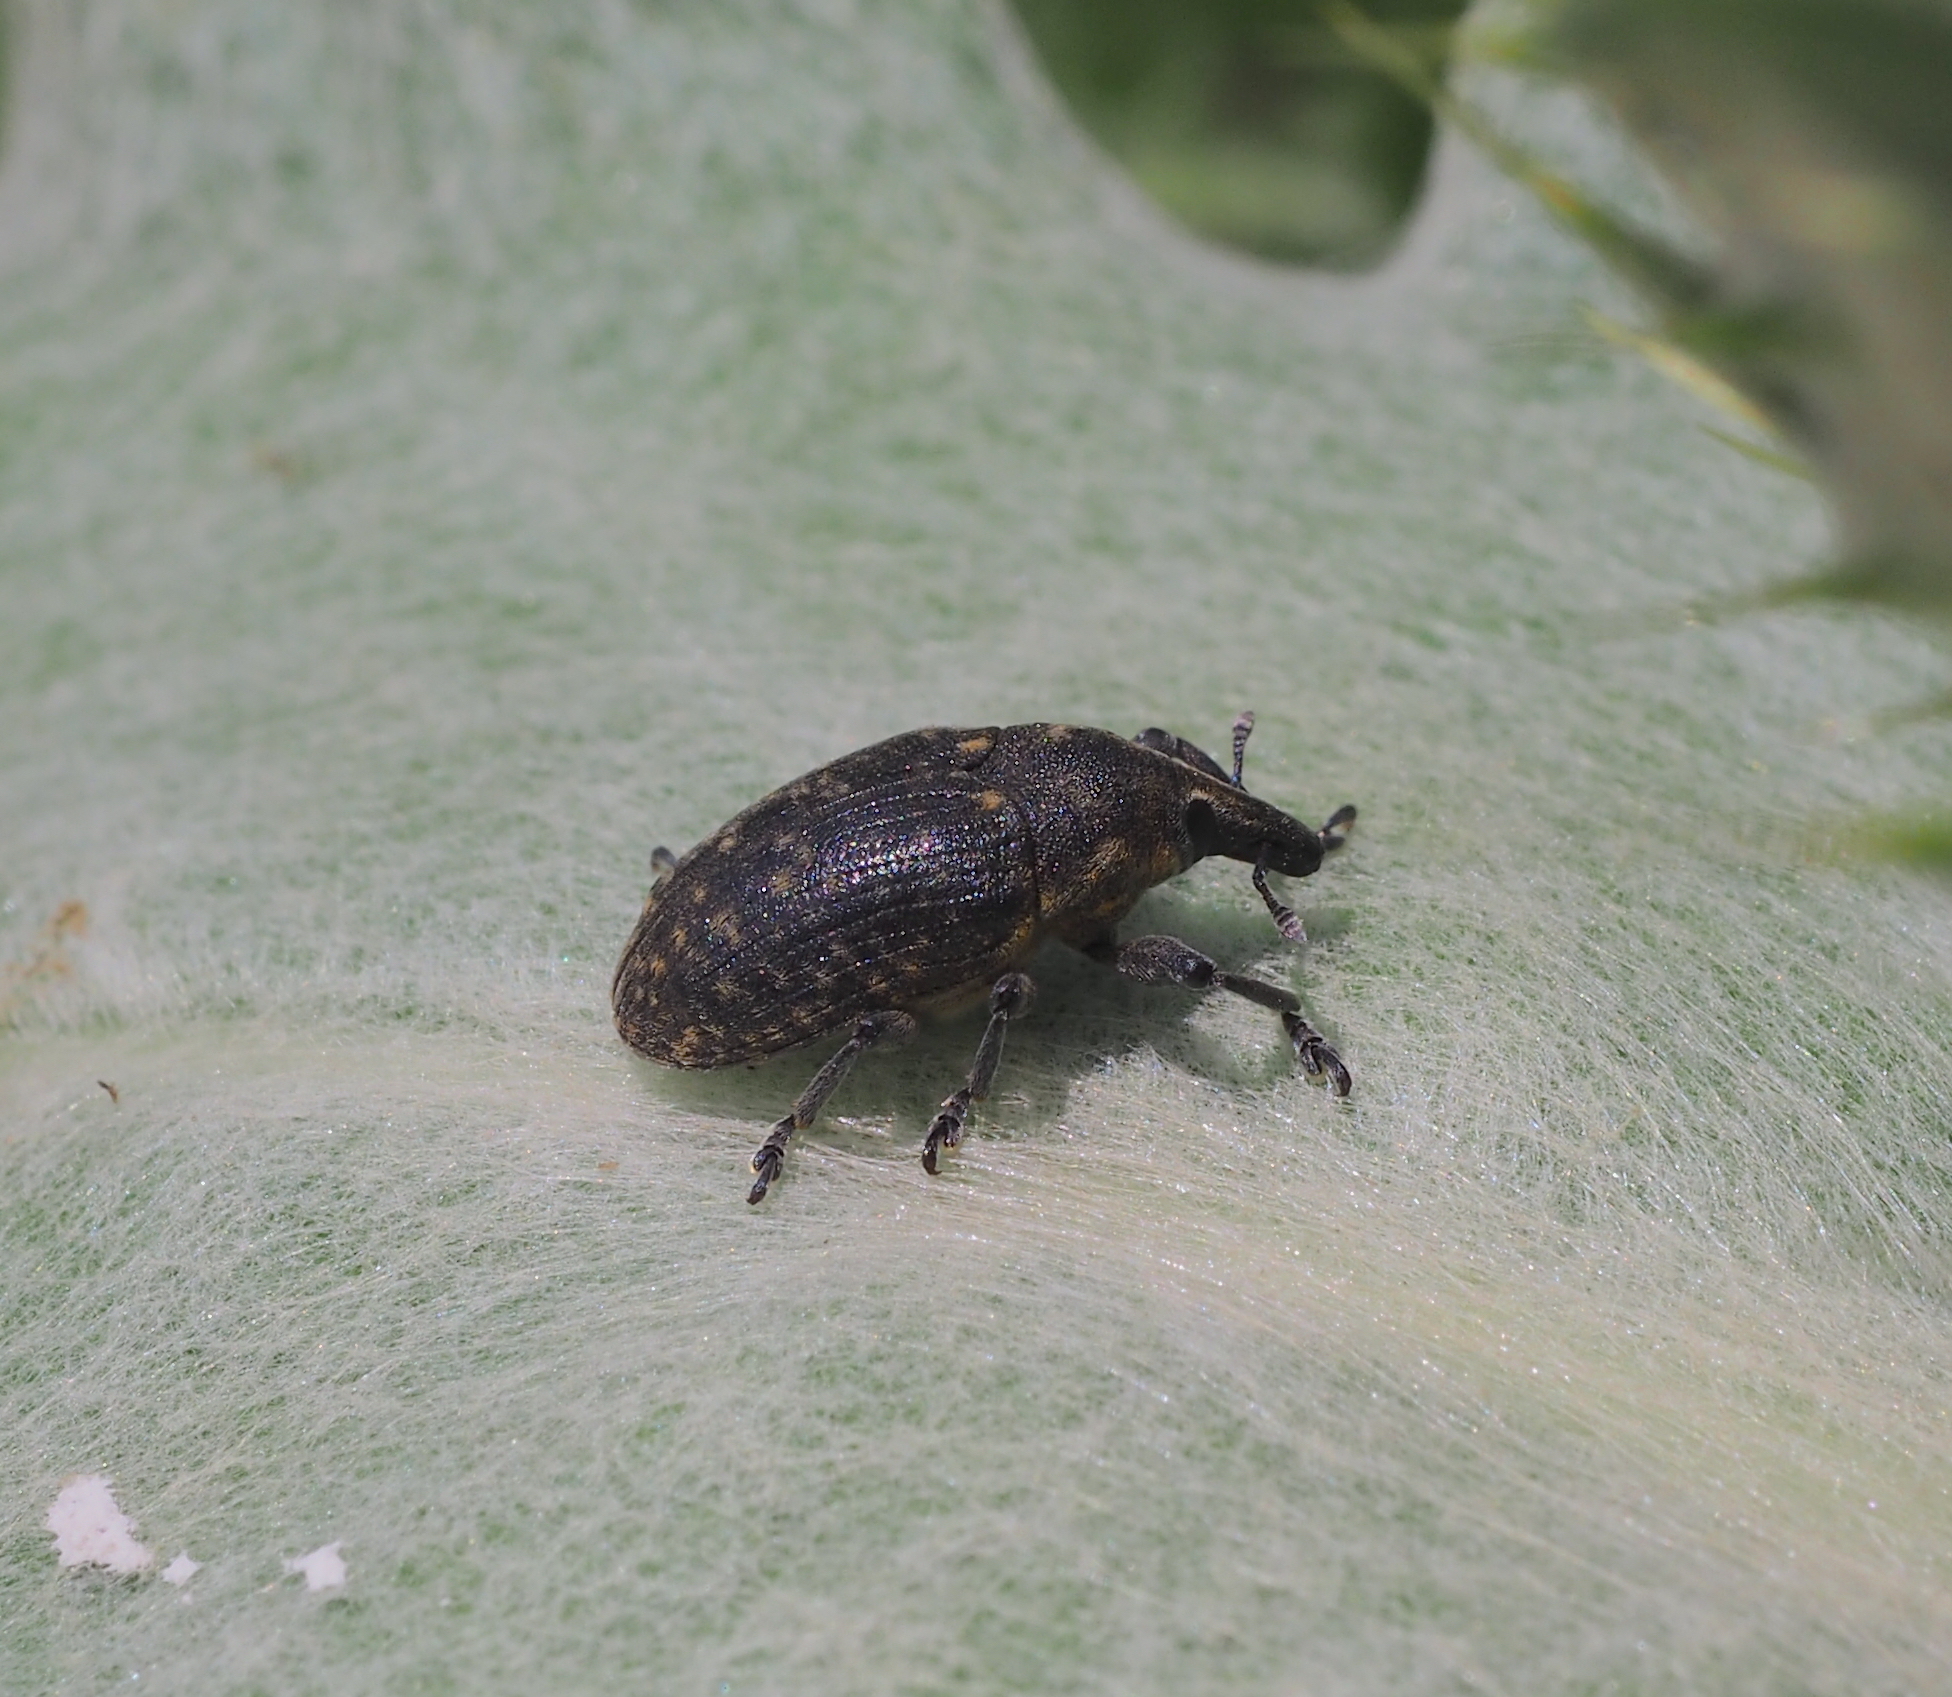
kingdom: Animalia
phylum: Arthropoda
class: Insecta
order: Coleoptera
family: Curculionidae
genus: Larinus
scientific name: Larinus turbinatus
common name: Weevil
